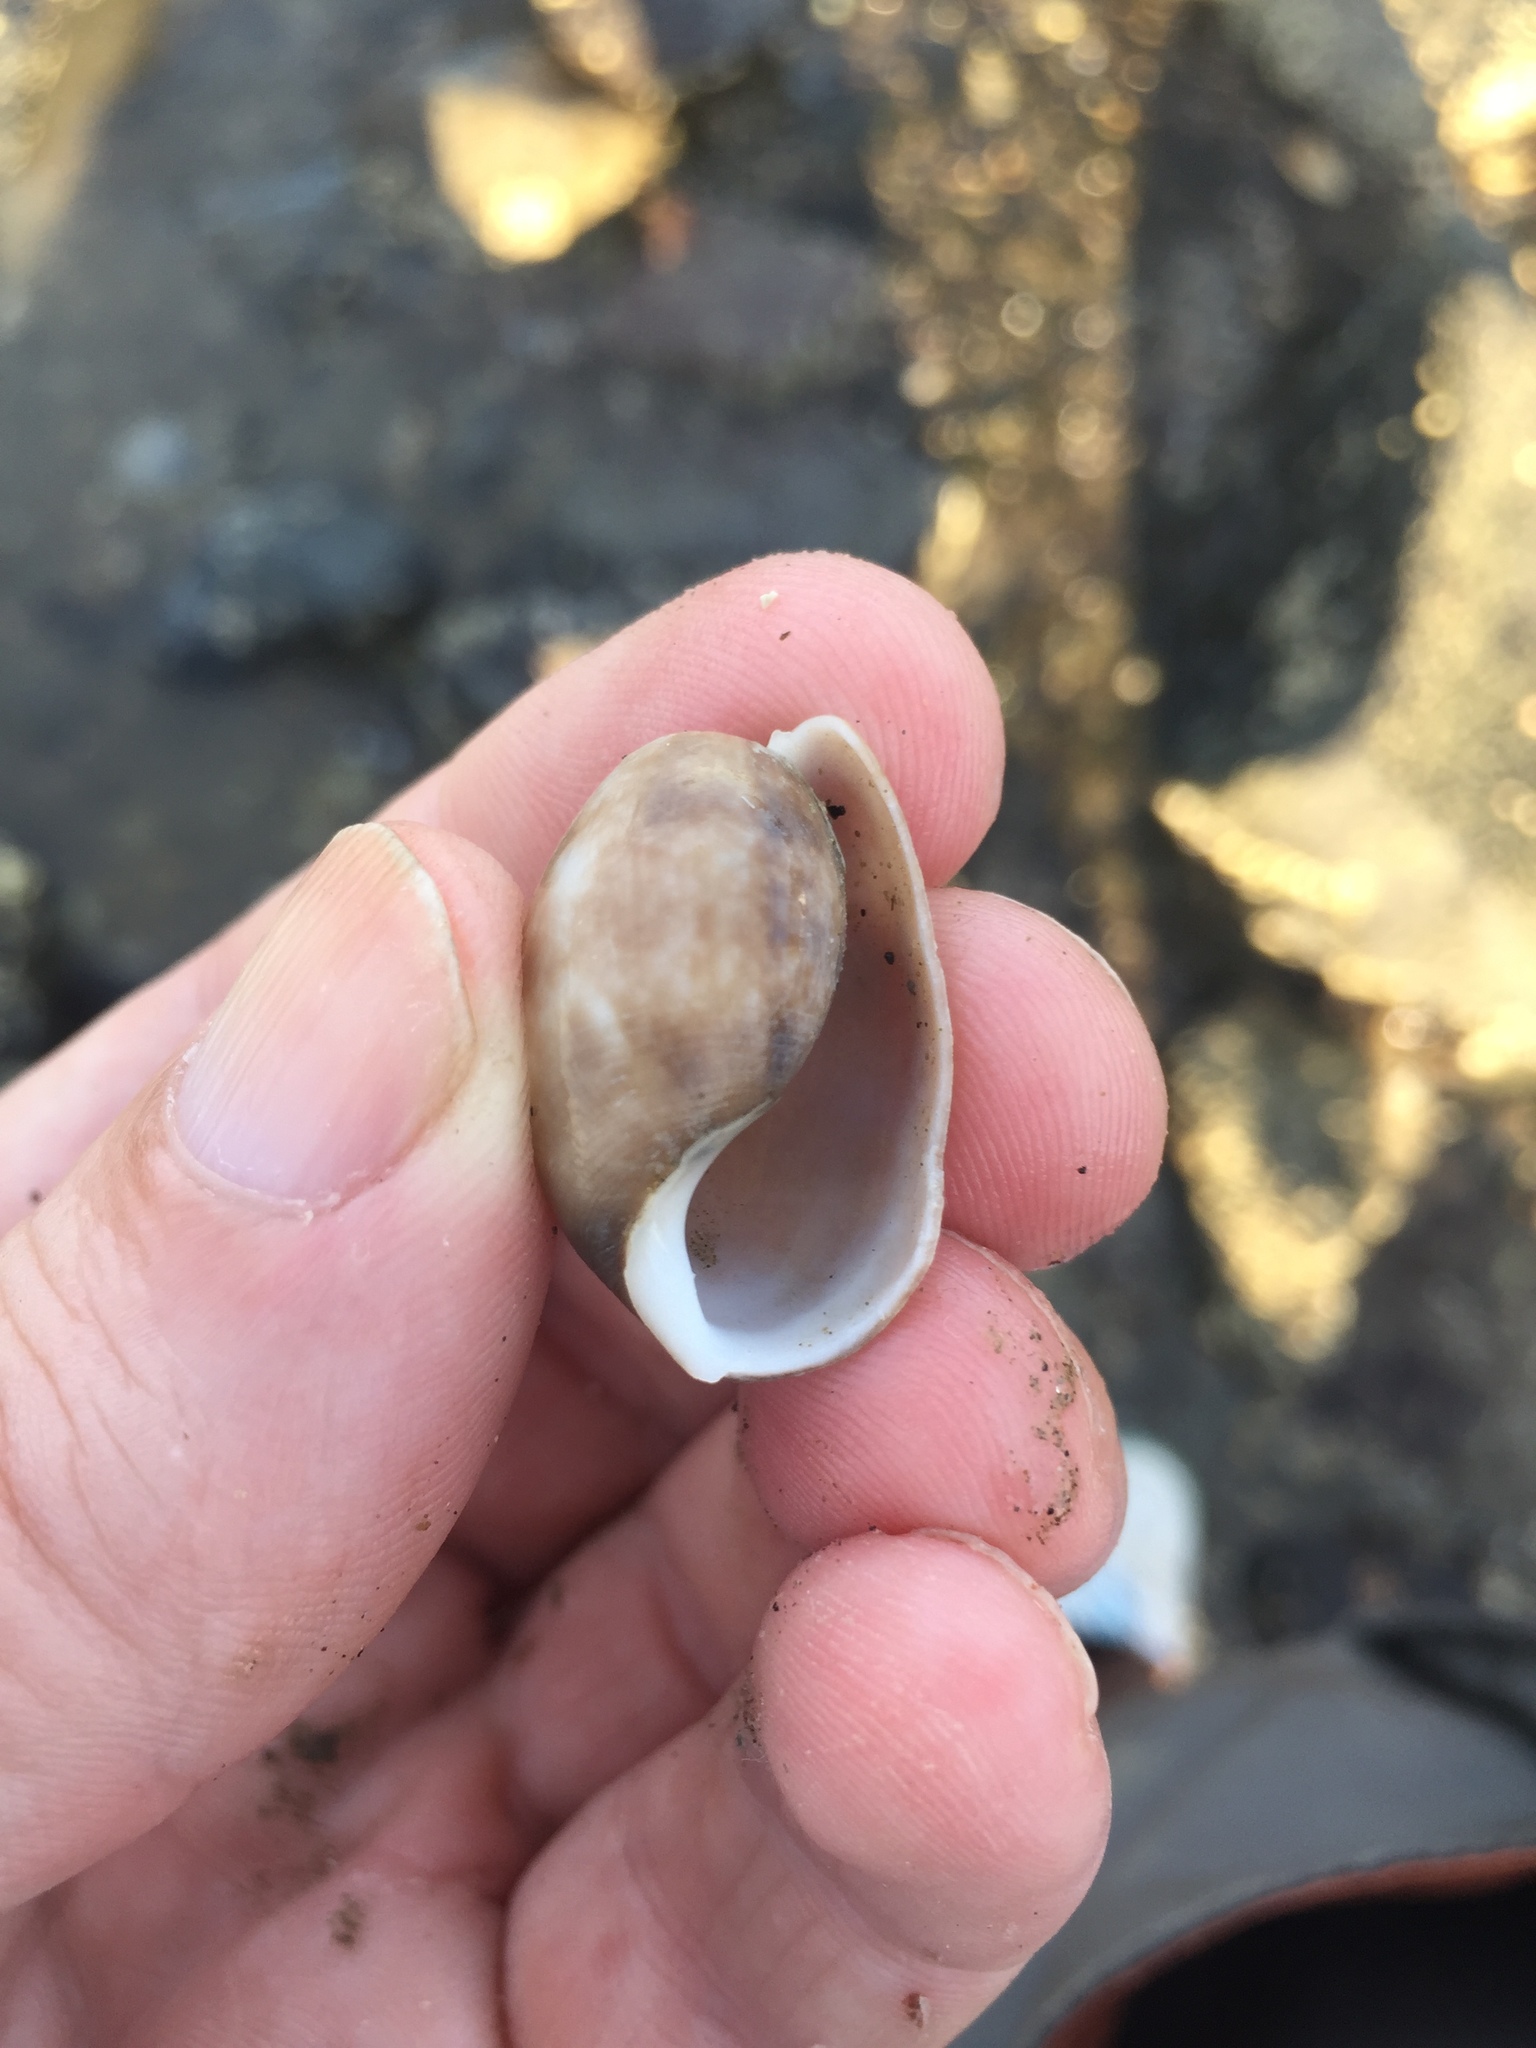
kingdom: Animalia
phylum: Mollusca
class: Gastropoda
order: Cephalaspidea
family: Bullidae
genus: Bulla
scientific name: Bulla quoyii
